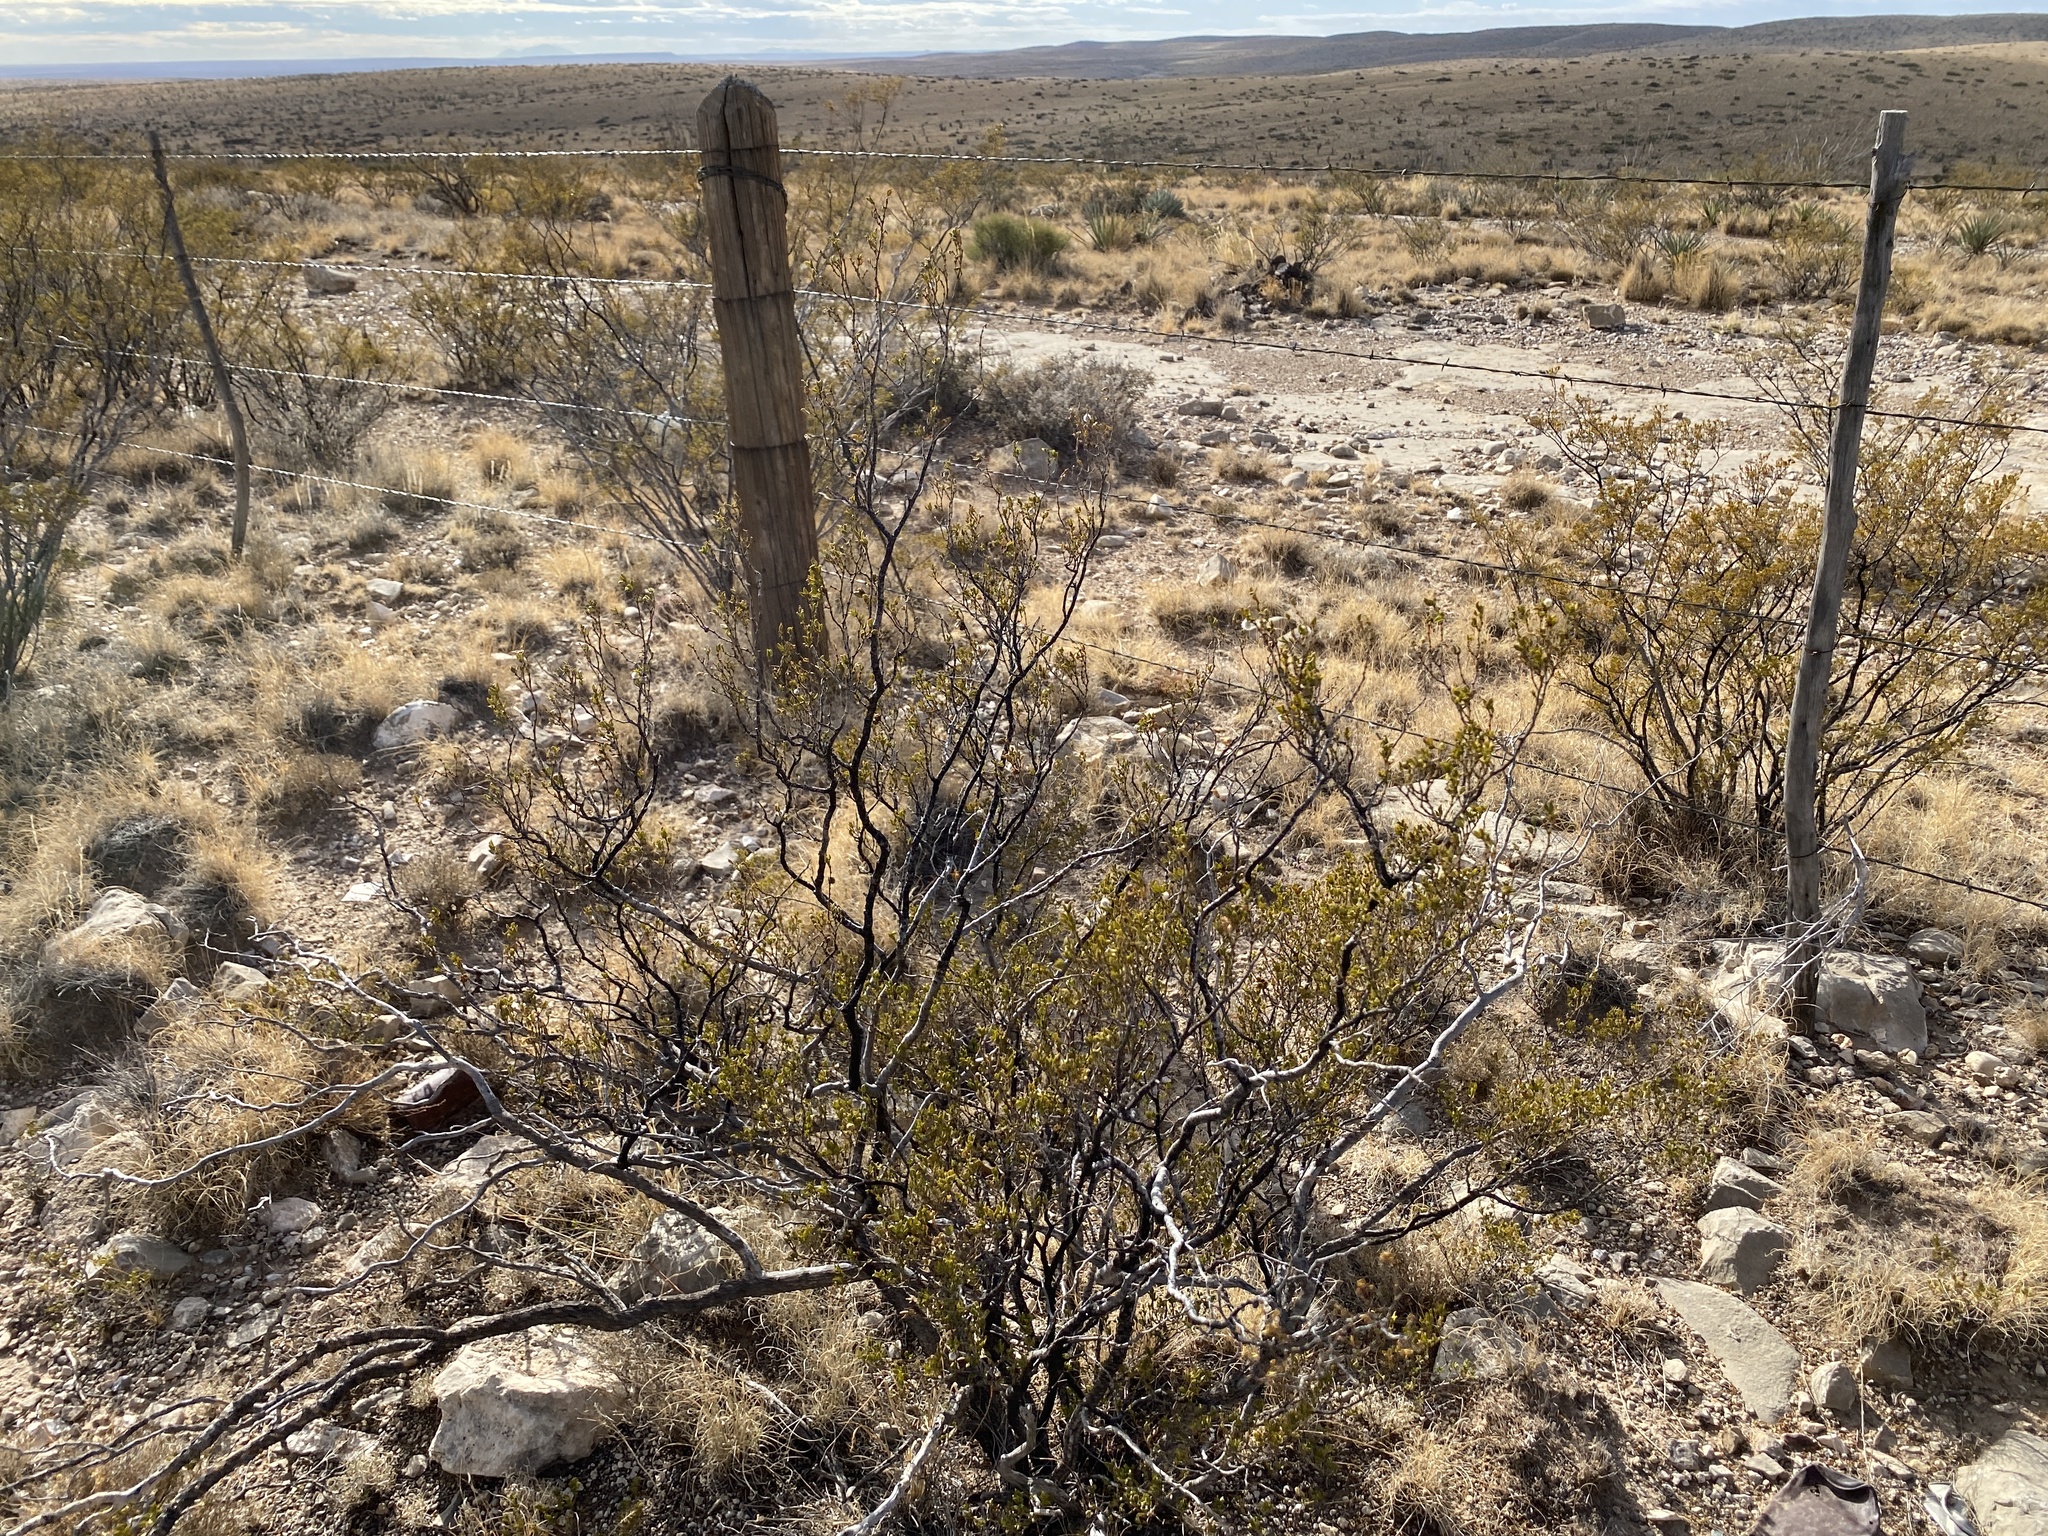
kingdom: Plantae
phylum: Tracheophyta
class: Magnoliopsida
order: Zygophyllales
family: Zygophyllaceae
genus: Larrea
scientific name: Larrea tridentata
